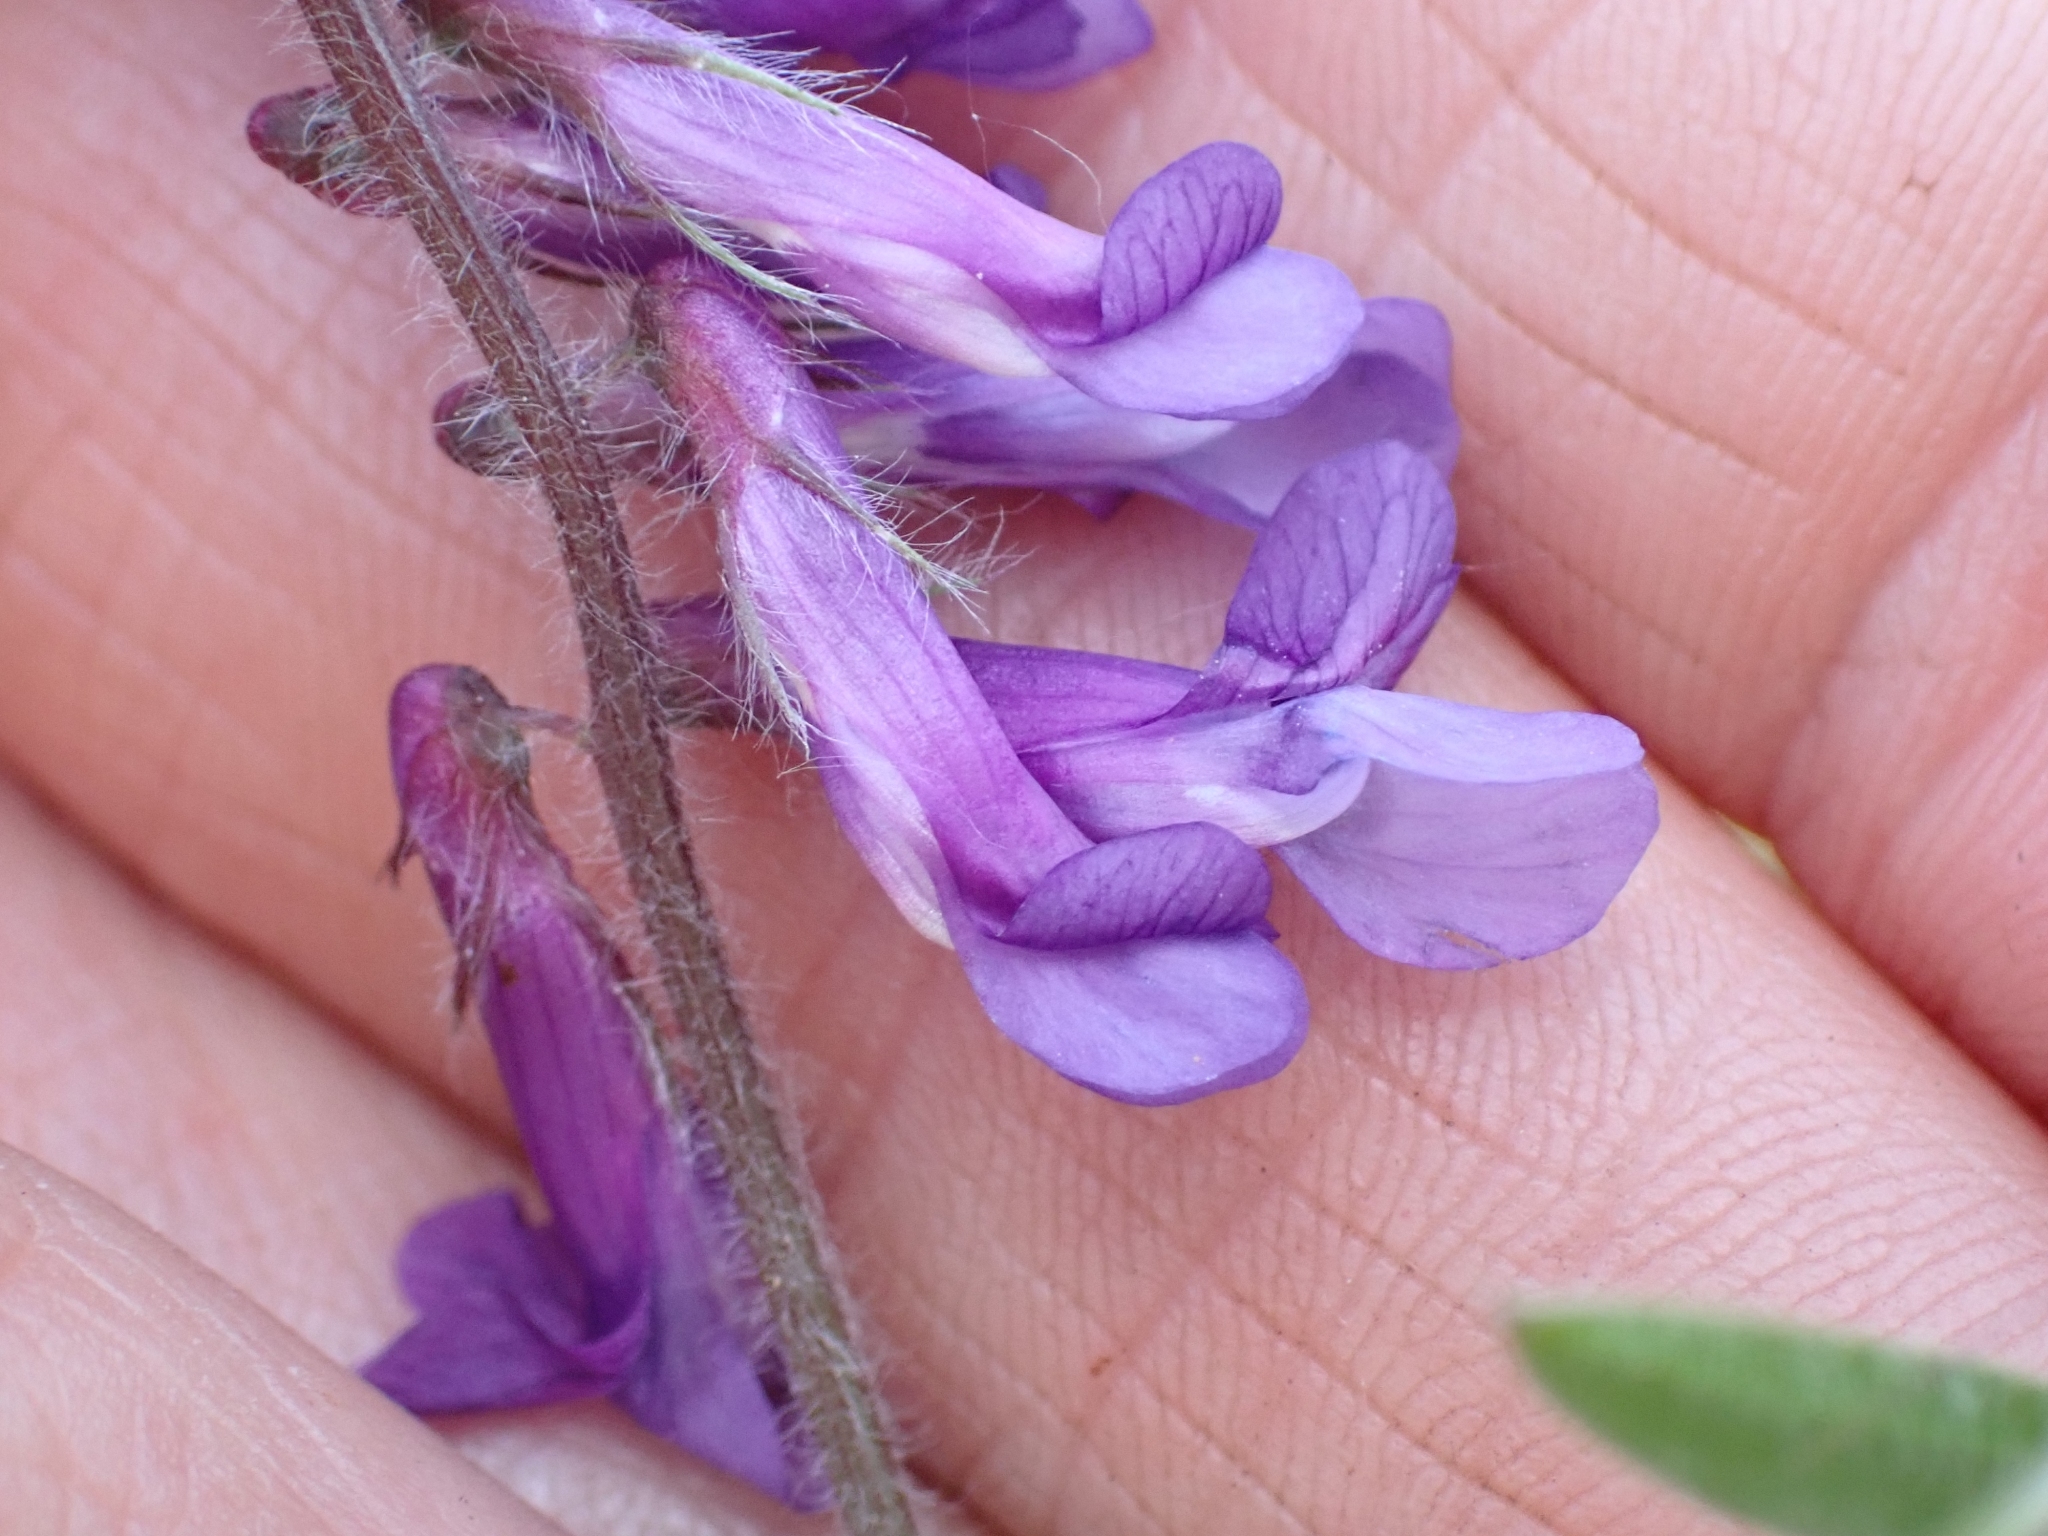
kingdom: Plantae
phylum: Tracheophyta
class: Magnoliopsida
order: Fabales
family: Fabaceae
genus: Vicia
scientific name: Vicia villosa
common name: Fodder vetch
